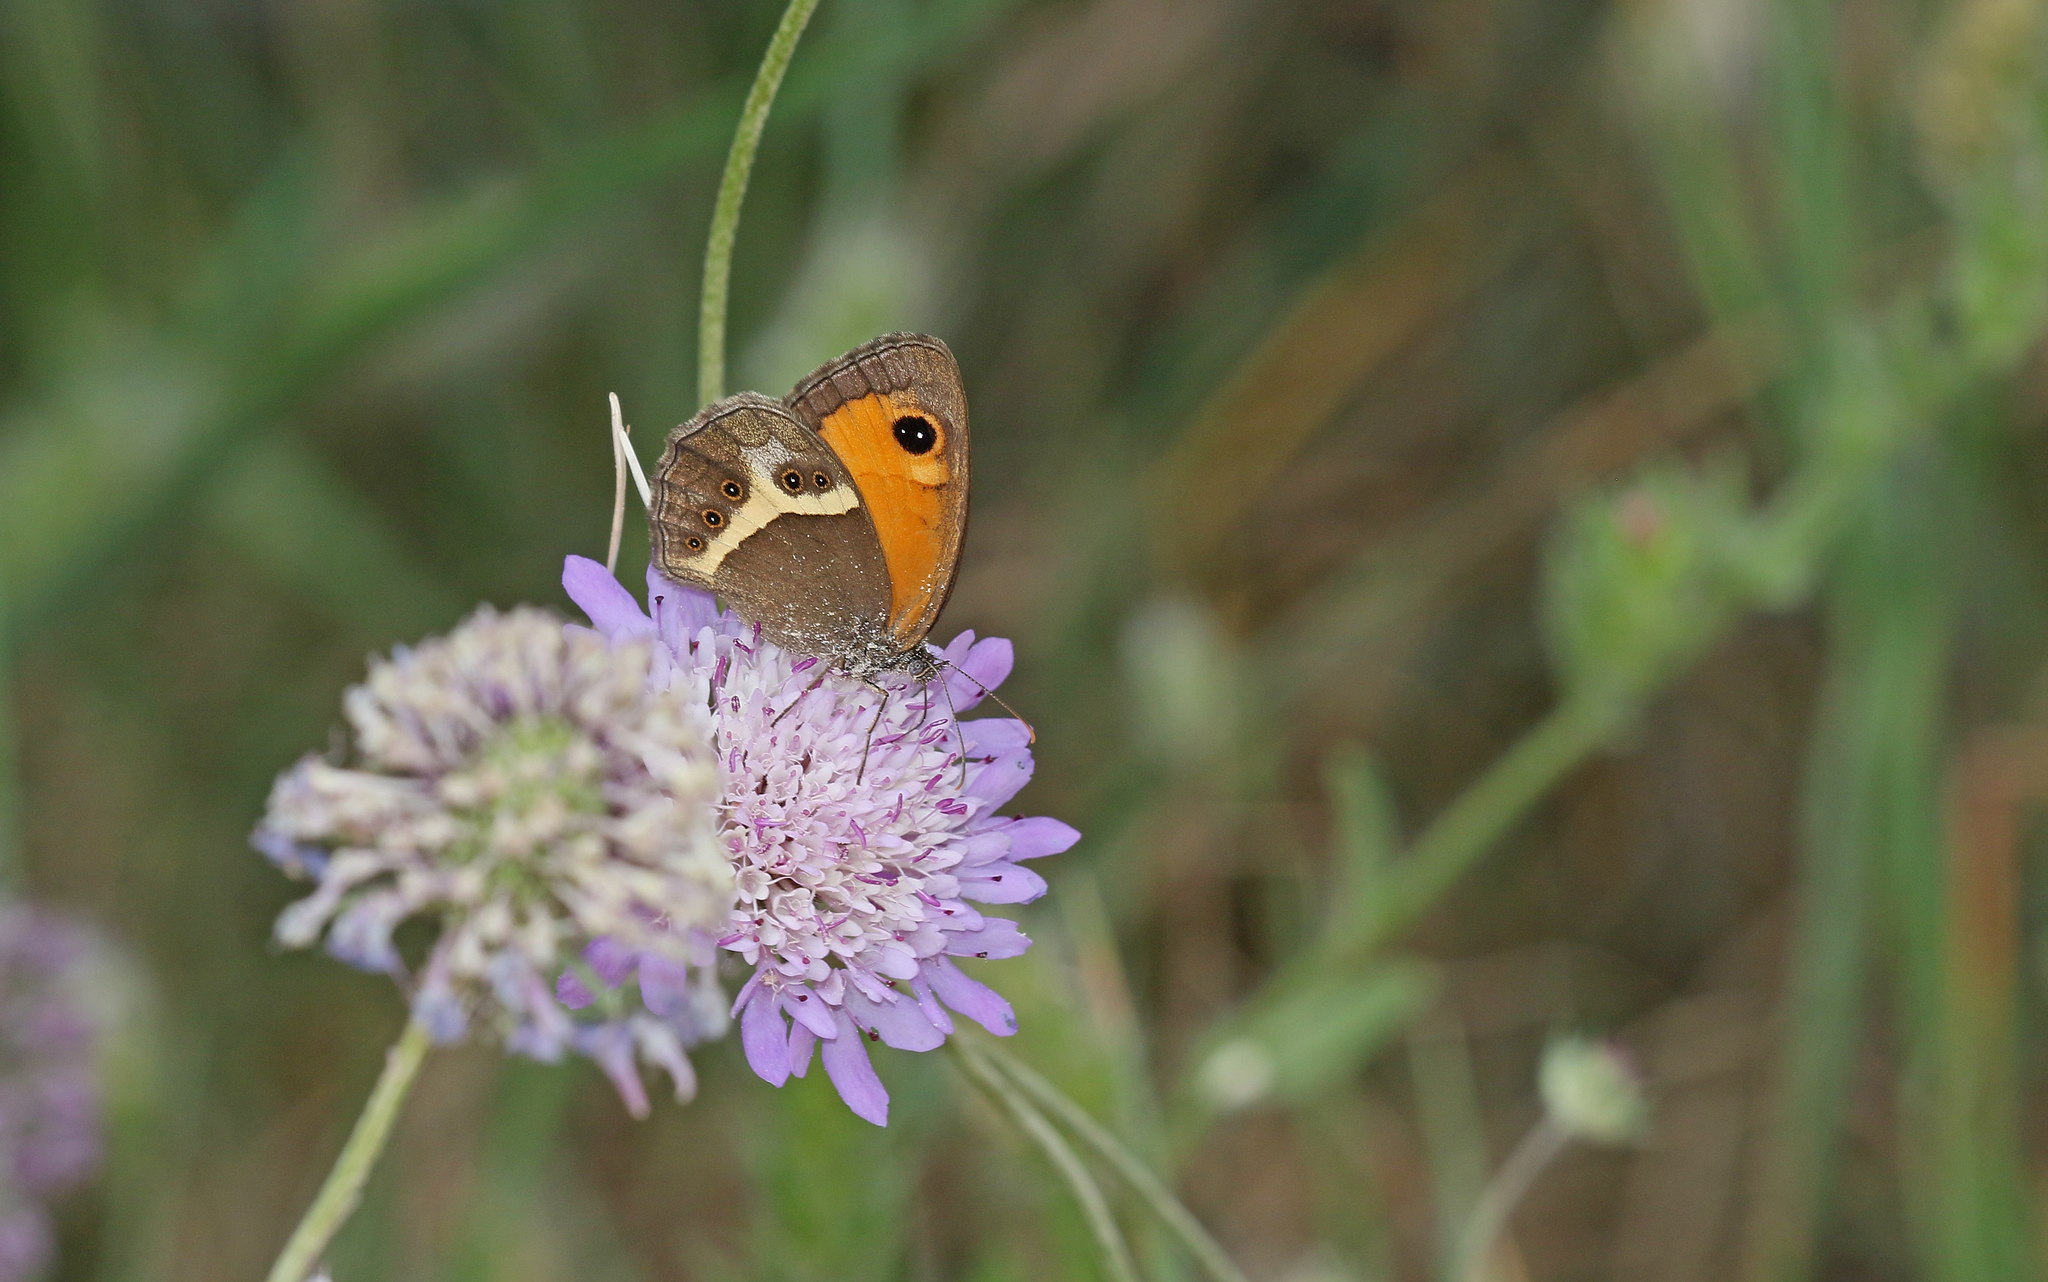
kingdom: Animalia
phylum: Arthropoda
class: Insecta
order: Lepidoptera
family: Nymphalidae
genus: Pyronia
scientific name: Pyronia bathseba
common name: Spanish gatekeeper
